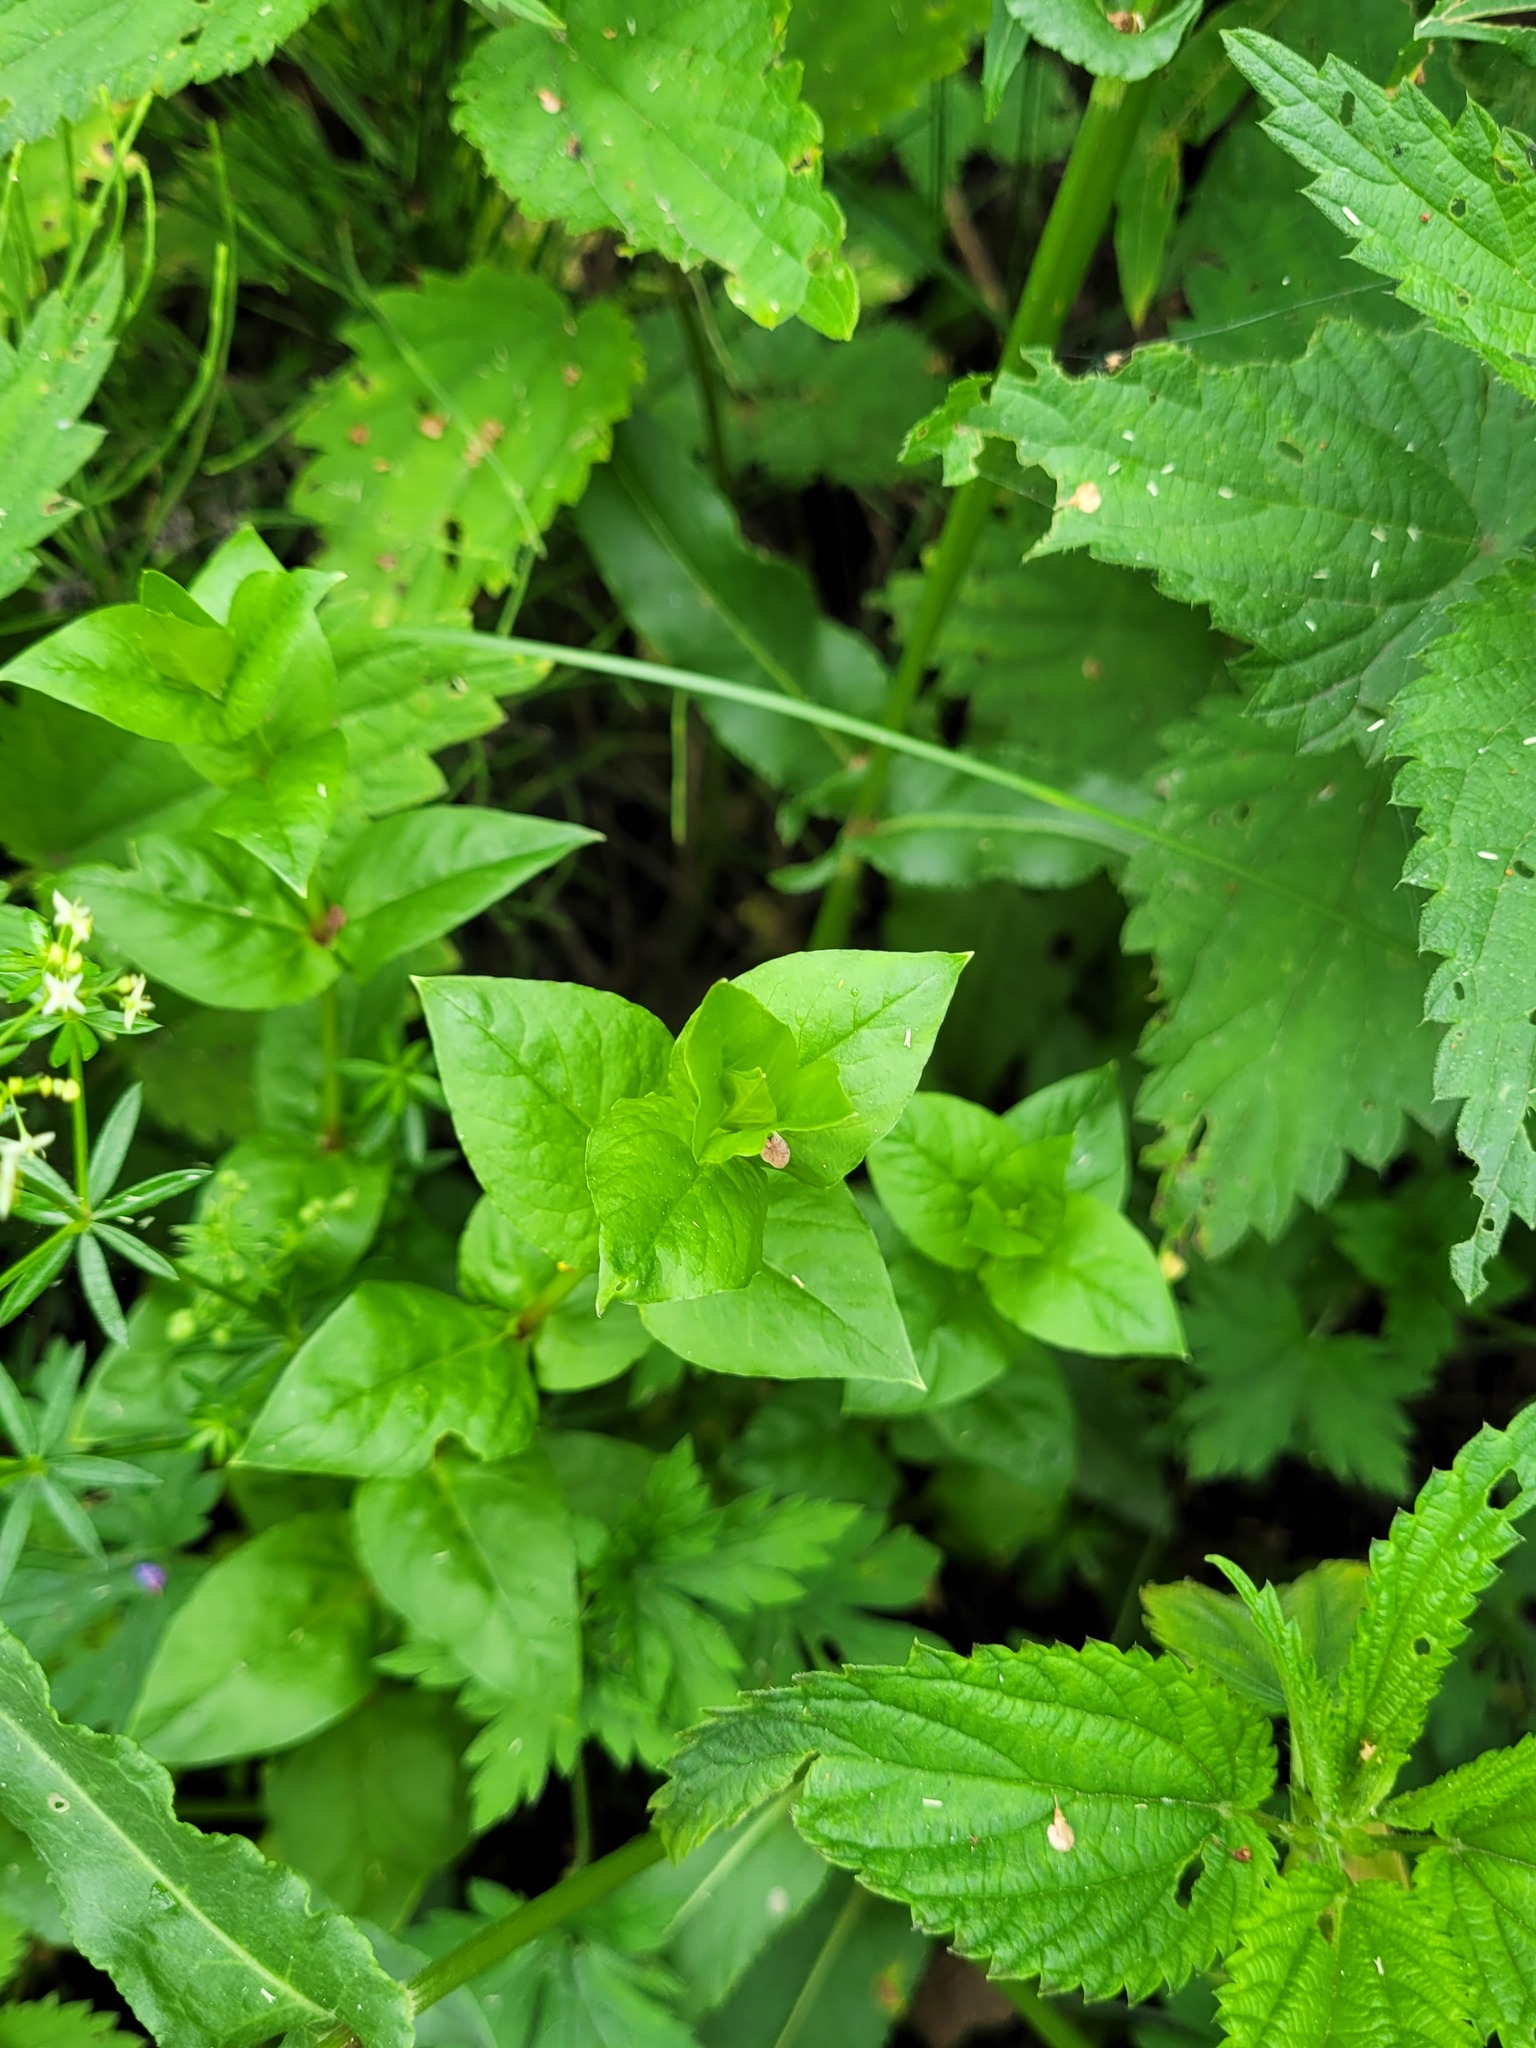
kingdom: Plantae
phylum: Tracheophyta
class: Magnoliopsida
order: Caryophyllales
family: Caryophyllaceae
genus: Stellaria
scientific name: Stellaria aquatica
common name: Water chickweed
